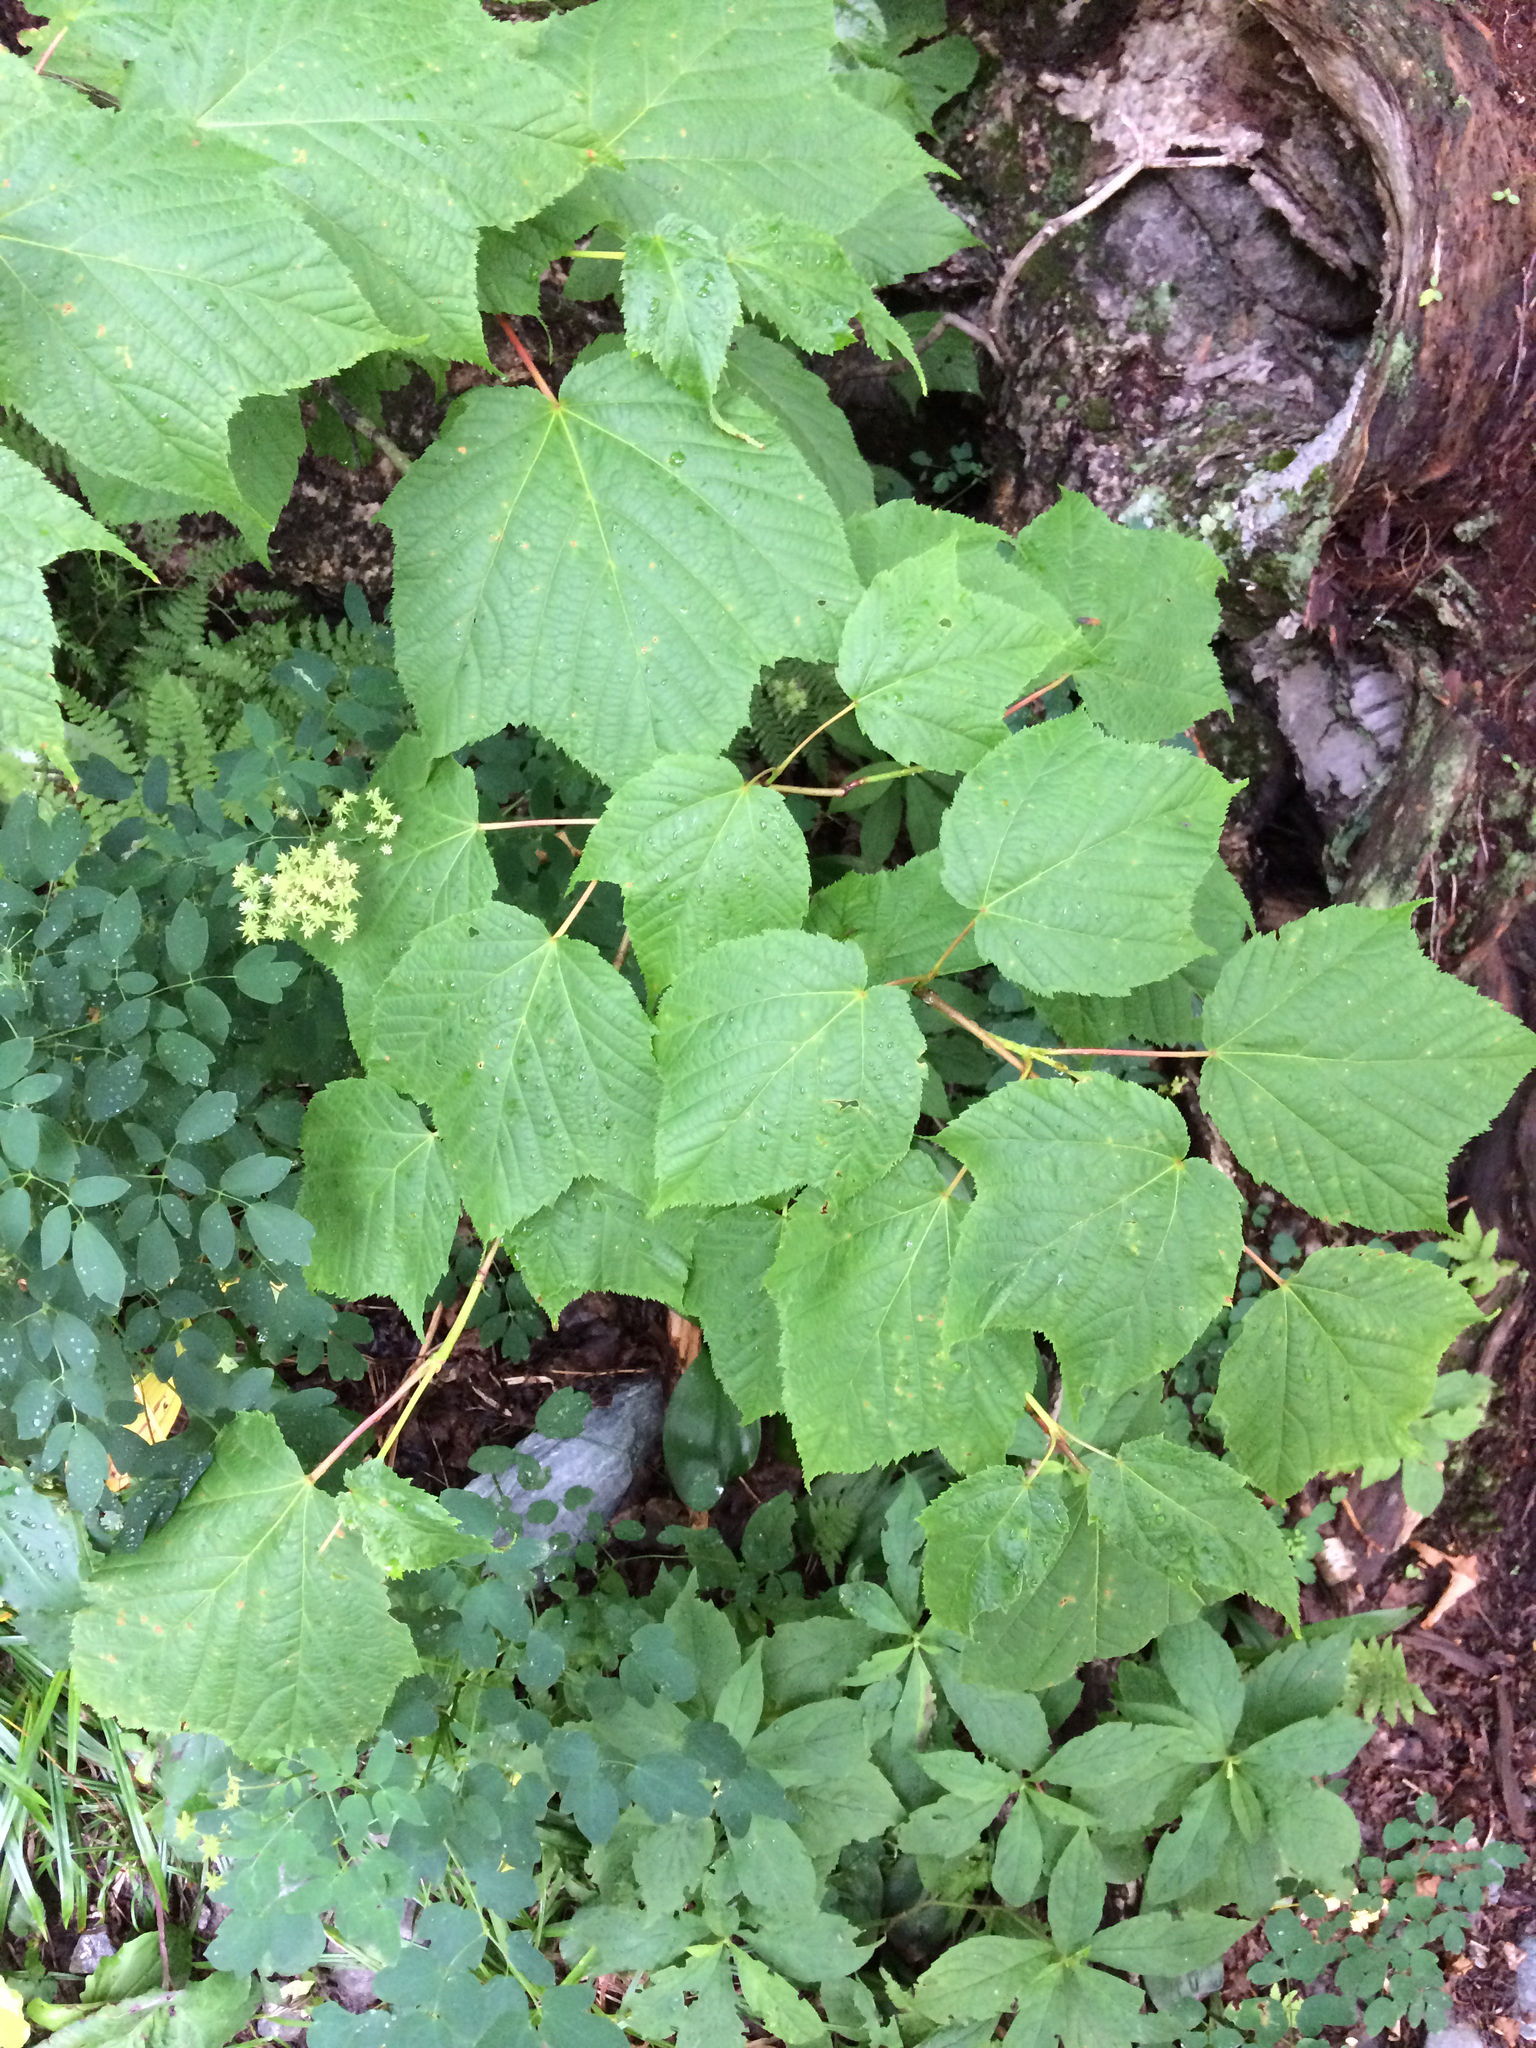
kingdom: Plantae
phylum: Tracheophyta
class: Magnoliopsida
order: Sapindales
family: Sapindaceae
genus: Acer
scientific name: Acer pensylvanicum
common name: Moosewood
